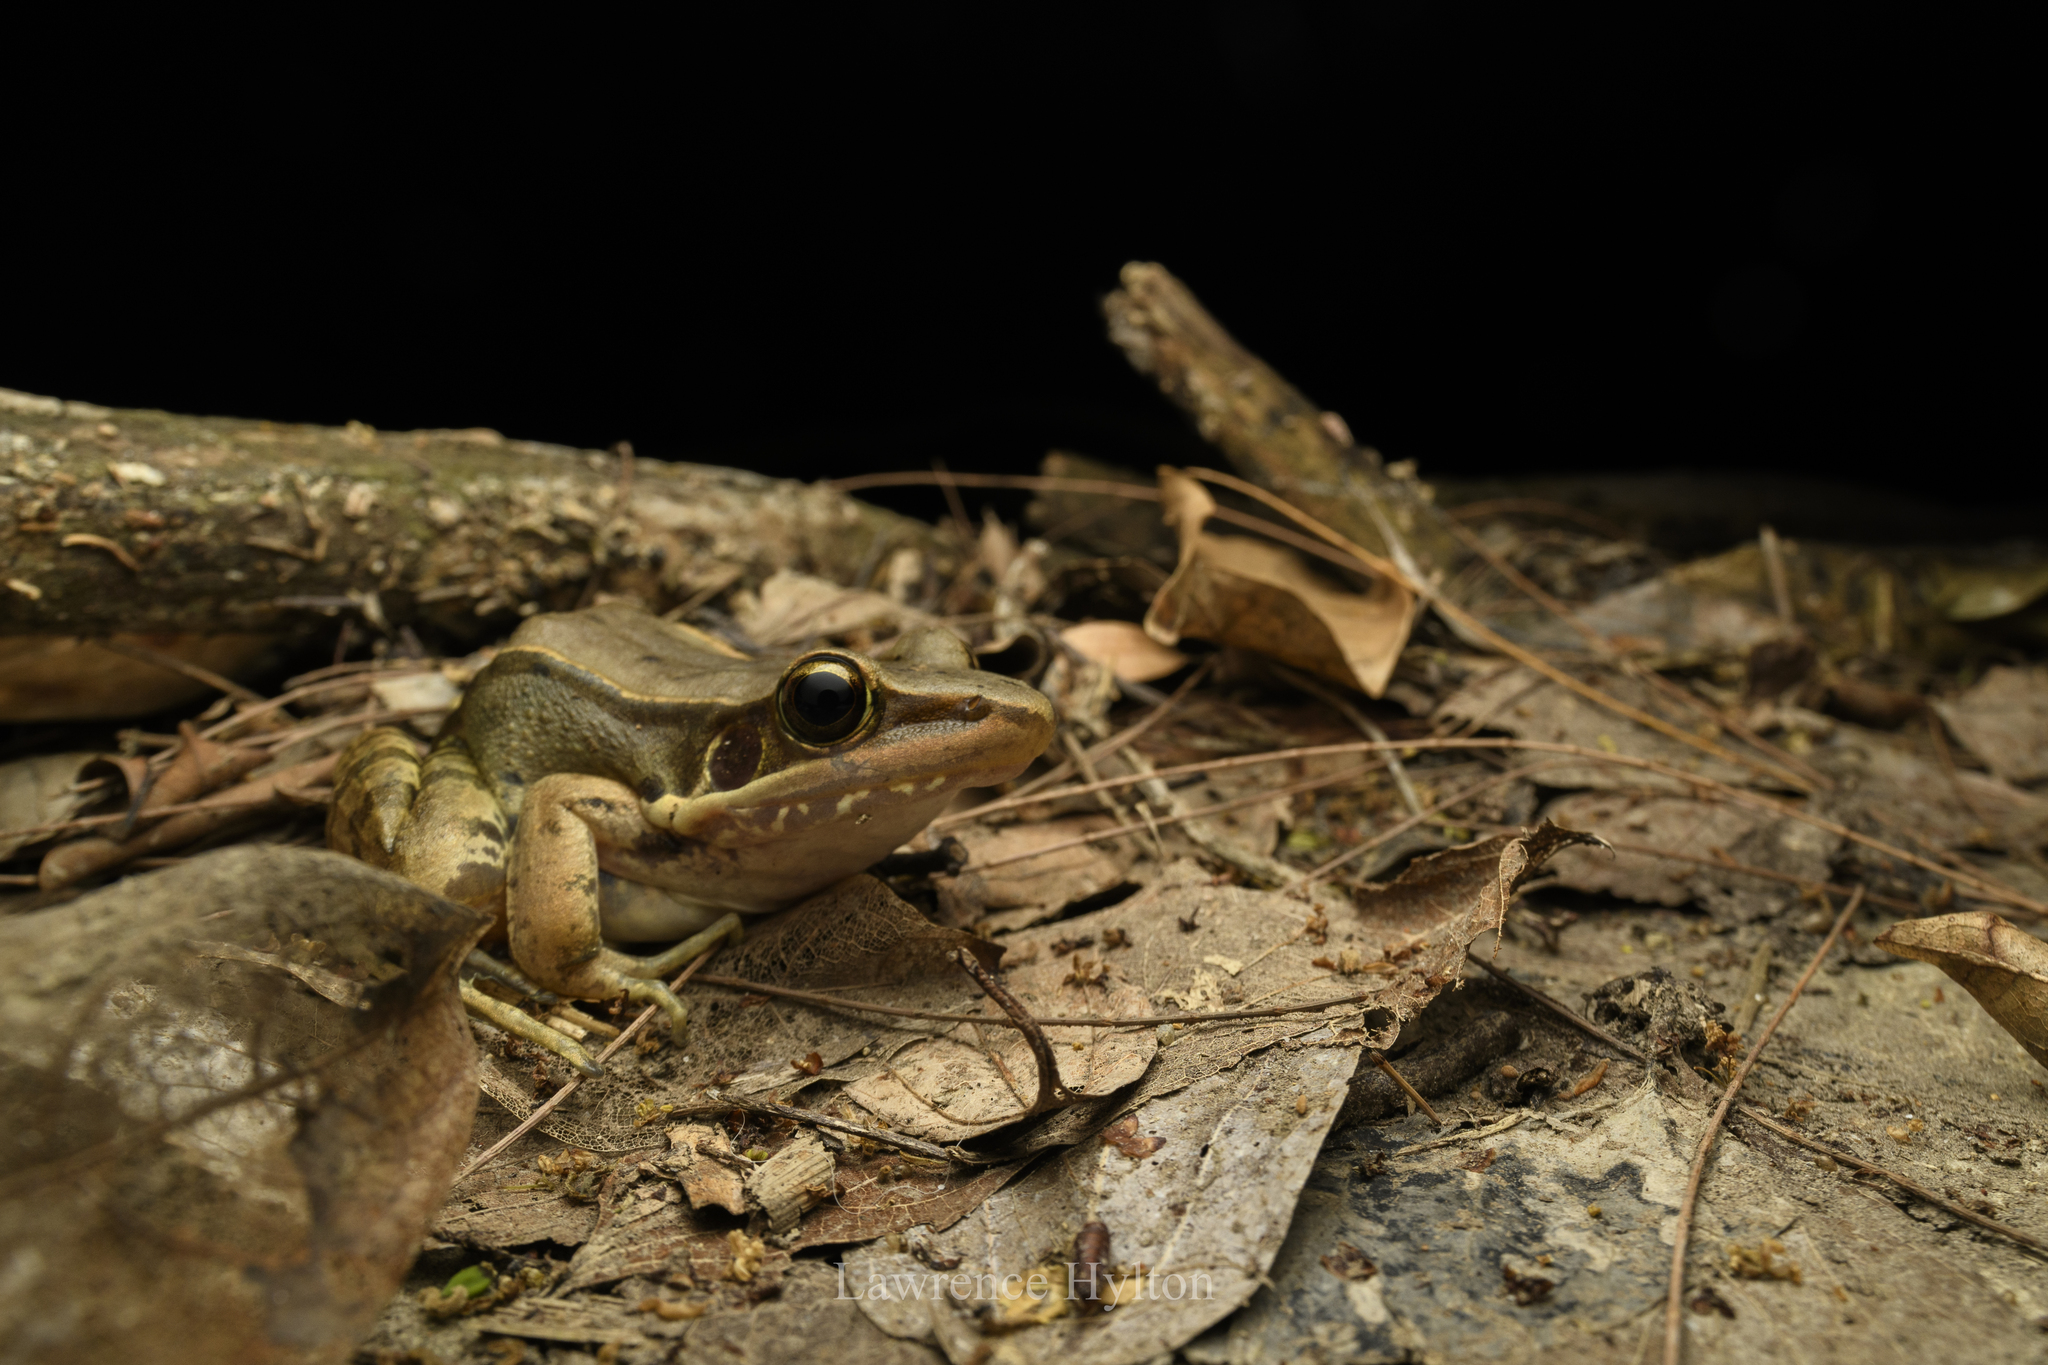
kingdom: Animalia
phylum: Chordata
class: Amphibia
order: Anura
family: Ranidae
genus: Sylvirana
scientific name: Sylvirana guentheri
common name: Guenther's amoy frog
